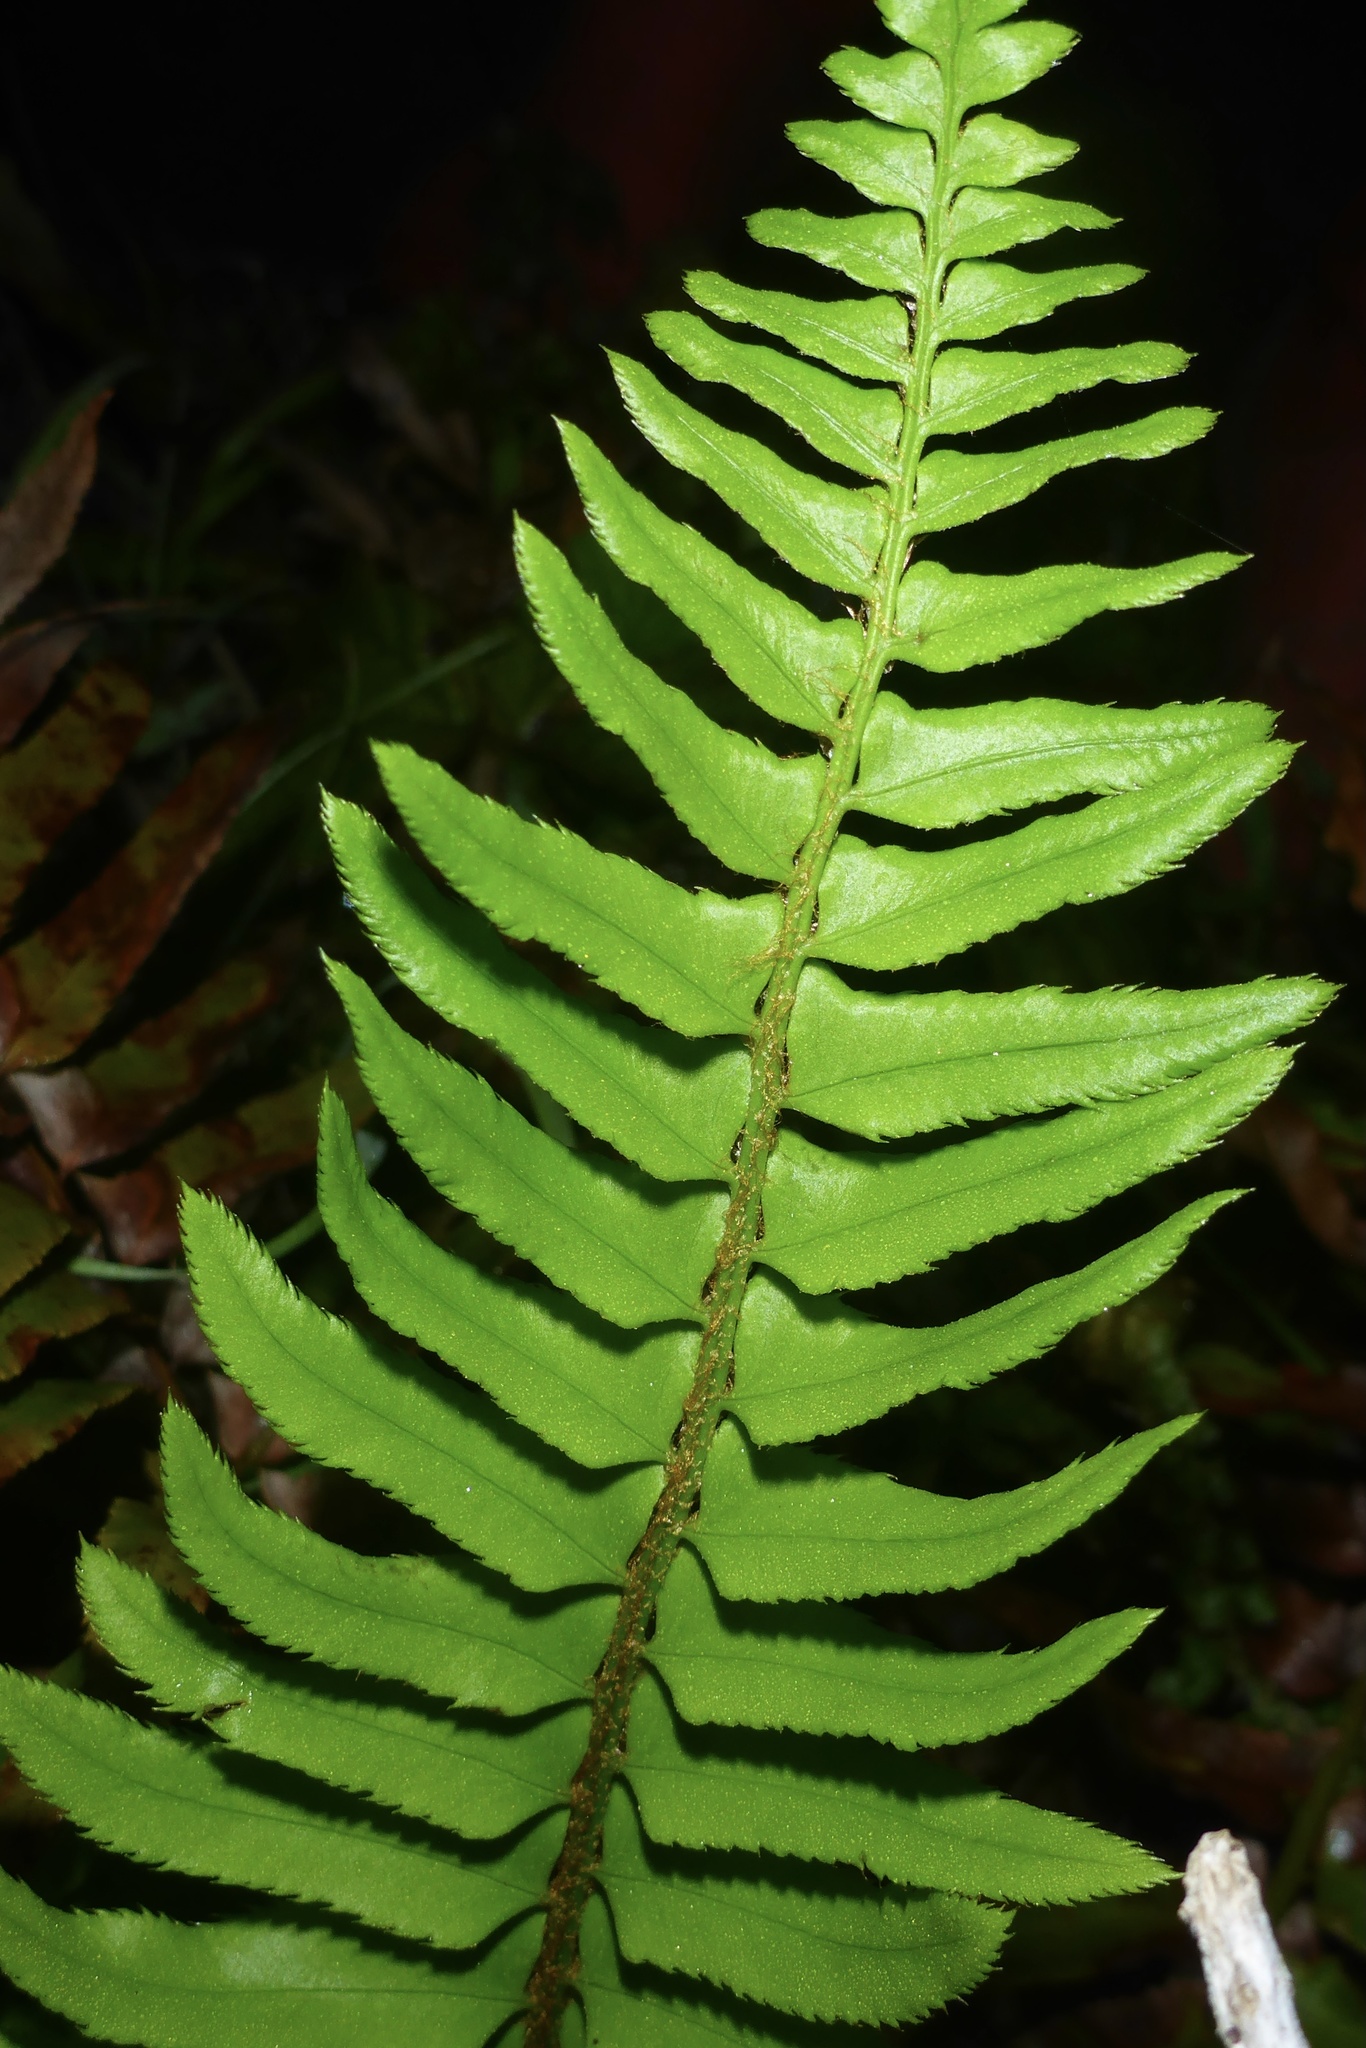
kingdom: Plantae
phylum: Tracheophyta
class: Polypodiopsida
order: Polypodiales
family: Dryopteridaceae
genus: Polystichum
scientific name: Polystichum munitum
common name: Western sword-fern
